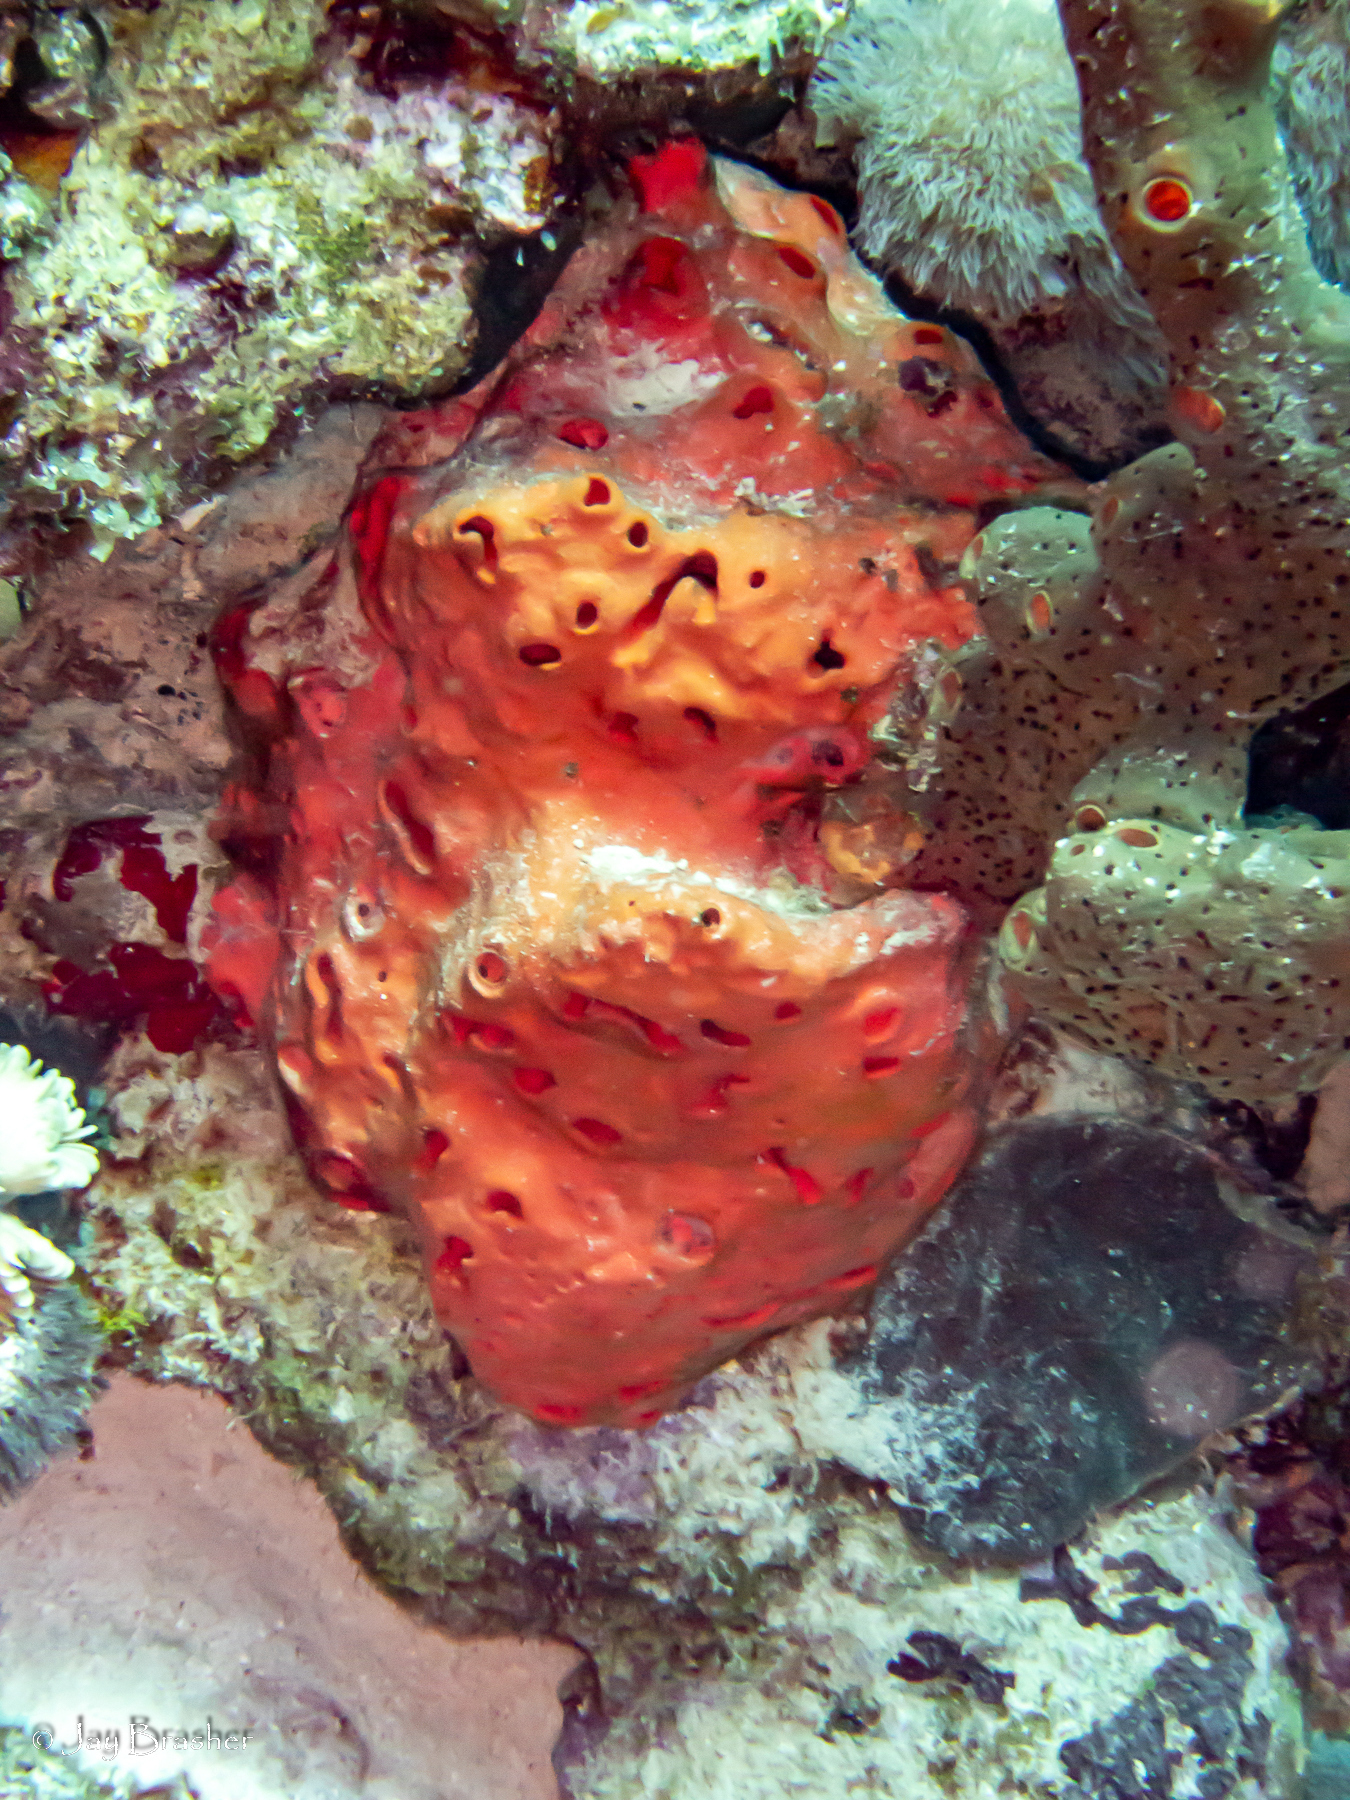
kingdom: Animalia
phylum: Porifera
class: Demospongiae
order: Agelasida
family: Agelasidae
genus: Agelas
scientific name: Agelas sventres
